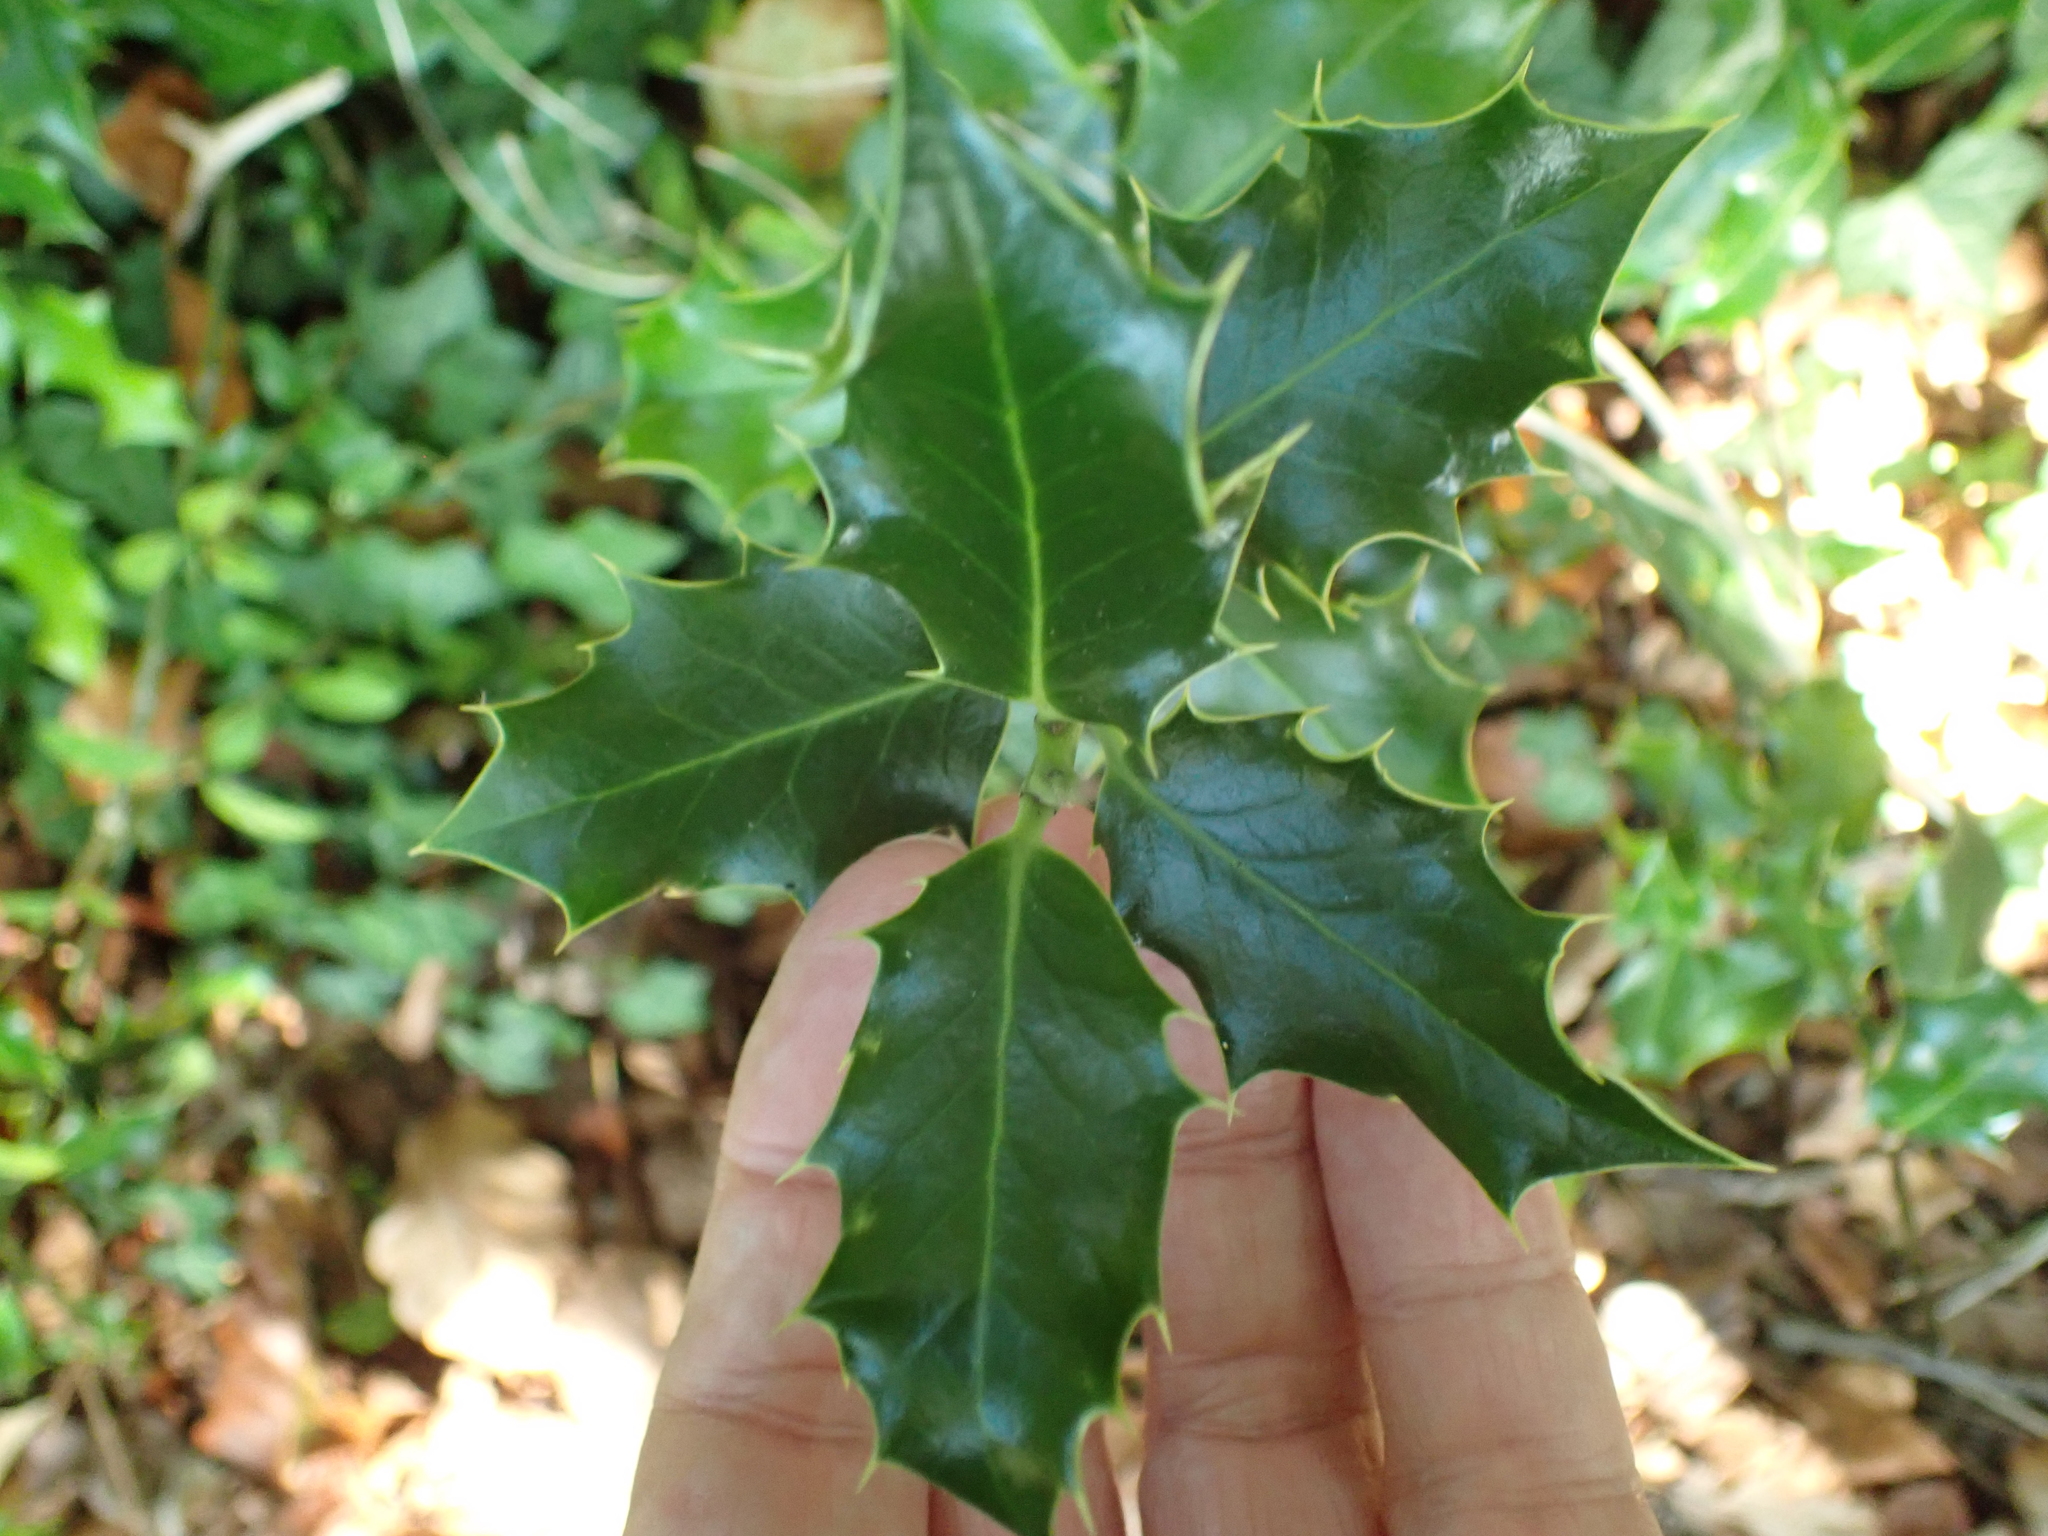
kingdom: Plantae
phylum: Tracheophyta
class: Magnoliopsida
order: Aquifoliales
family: Aquifoliaceae
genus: Ilex
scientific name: Ilex aquifolium
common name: English holly
